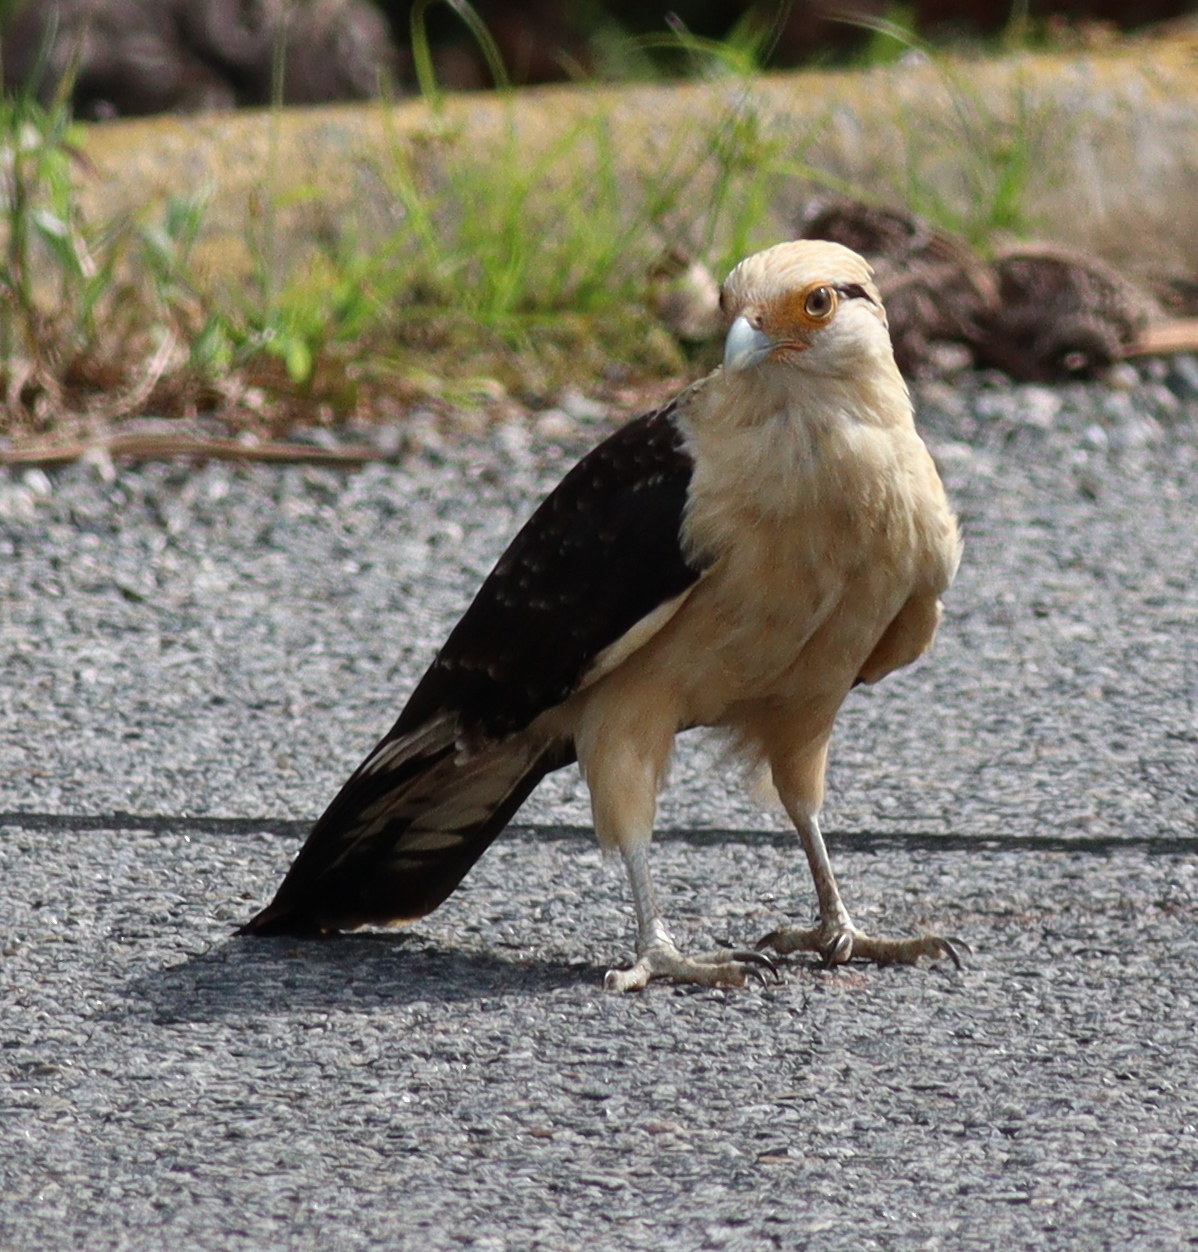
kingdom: Animalia
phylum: Chordata
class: Aves
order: Falconiformes
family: Falconidae
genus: Daptrius
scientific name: Daptrius
